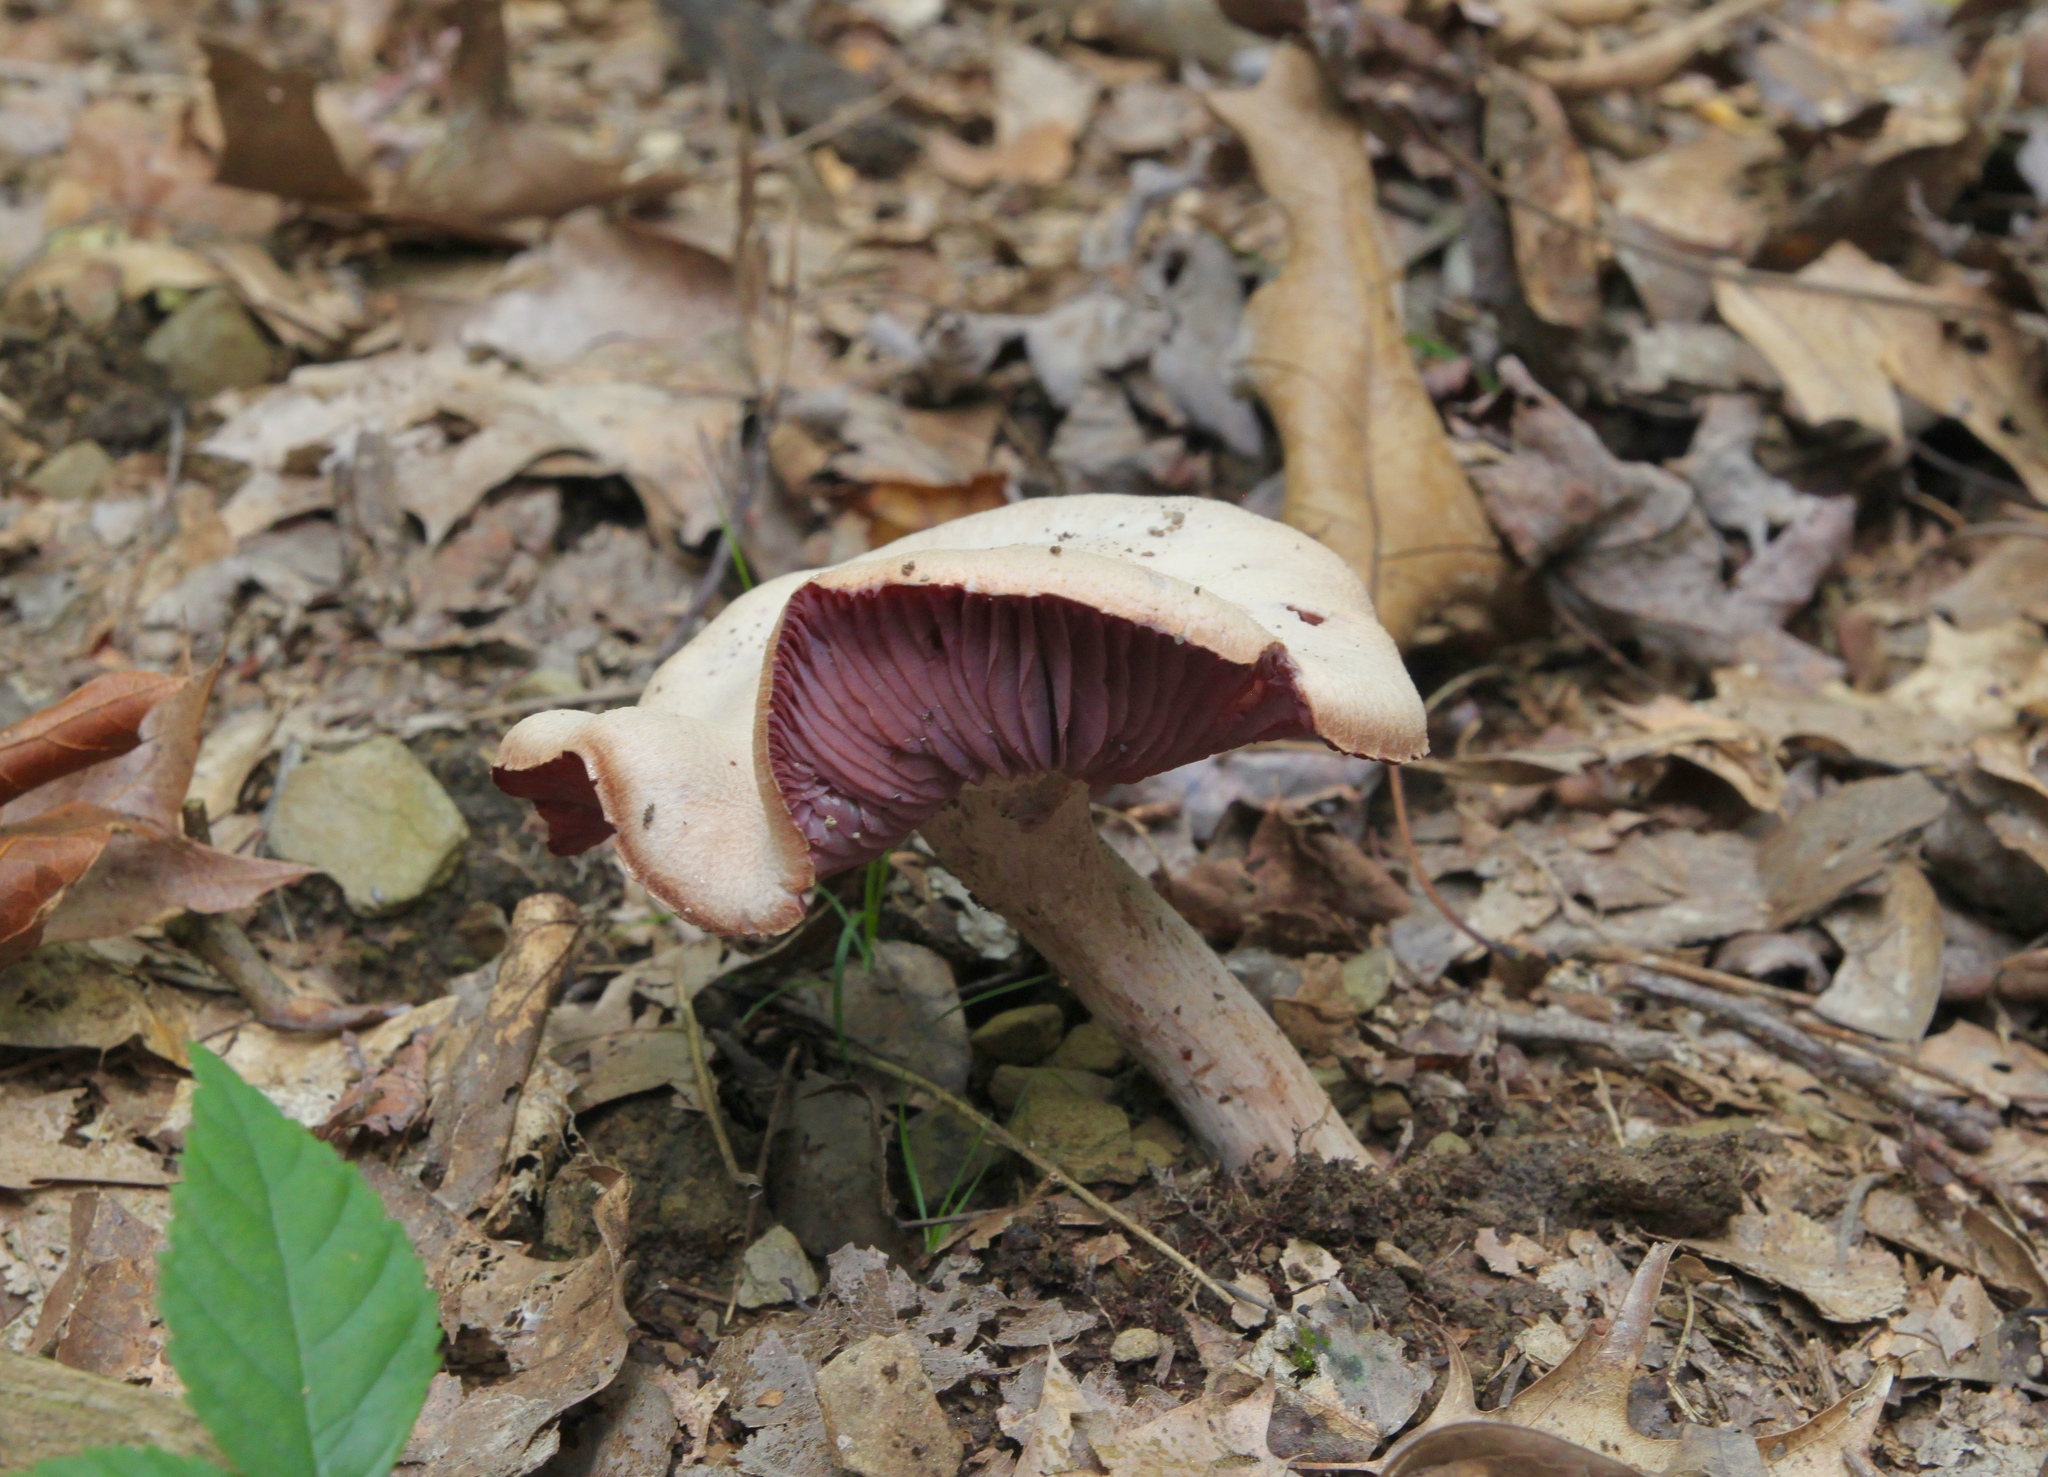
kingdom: Fungi
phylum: Basidiomycota
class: Agaricomycetes
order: Agaricales
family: Hydnangiaceae
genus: Laccaria
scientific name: Laccaria ochropurpurea
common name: Purple laccaria
